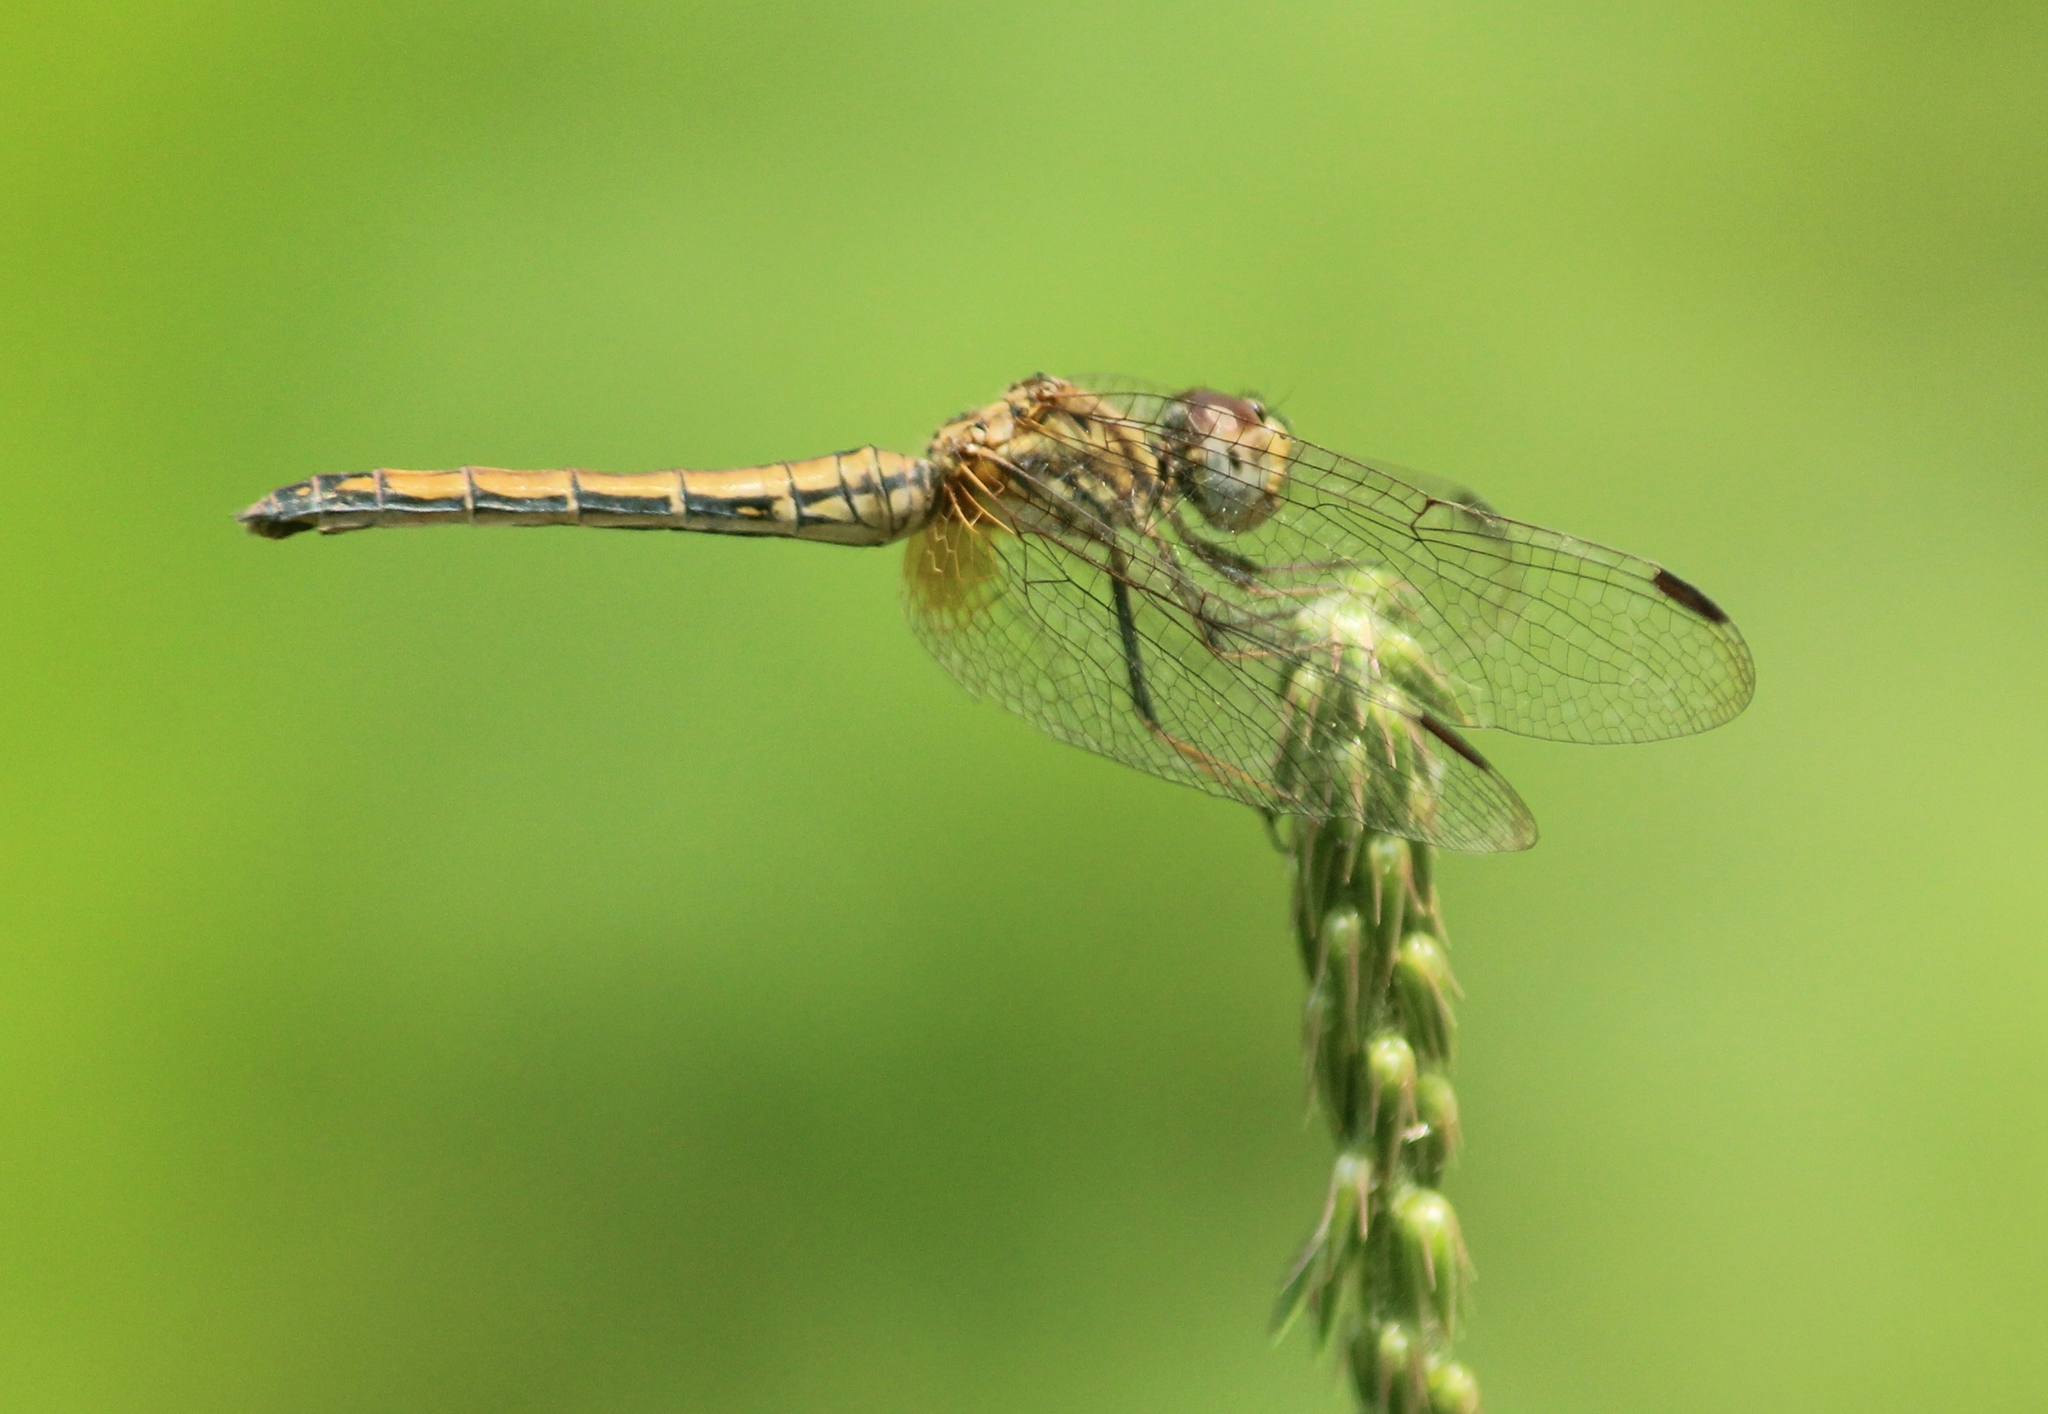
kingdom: Animalia
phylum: Arthropoda
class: Insecta
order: Odonata
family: Libellulidae
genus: Trithemis
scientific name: Trithemis aurora
